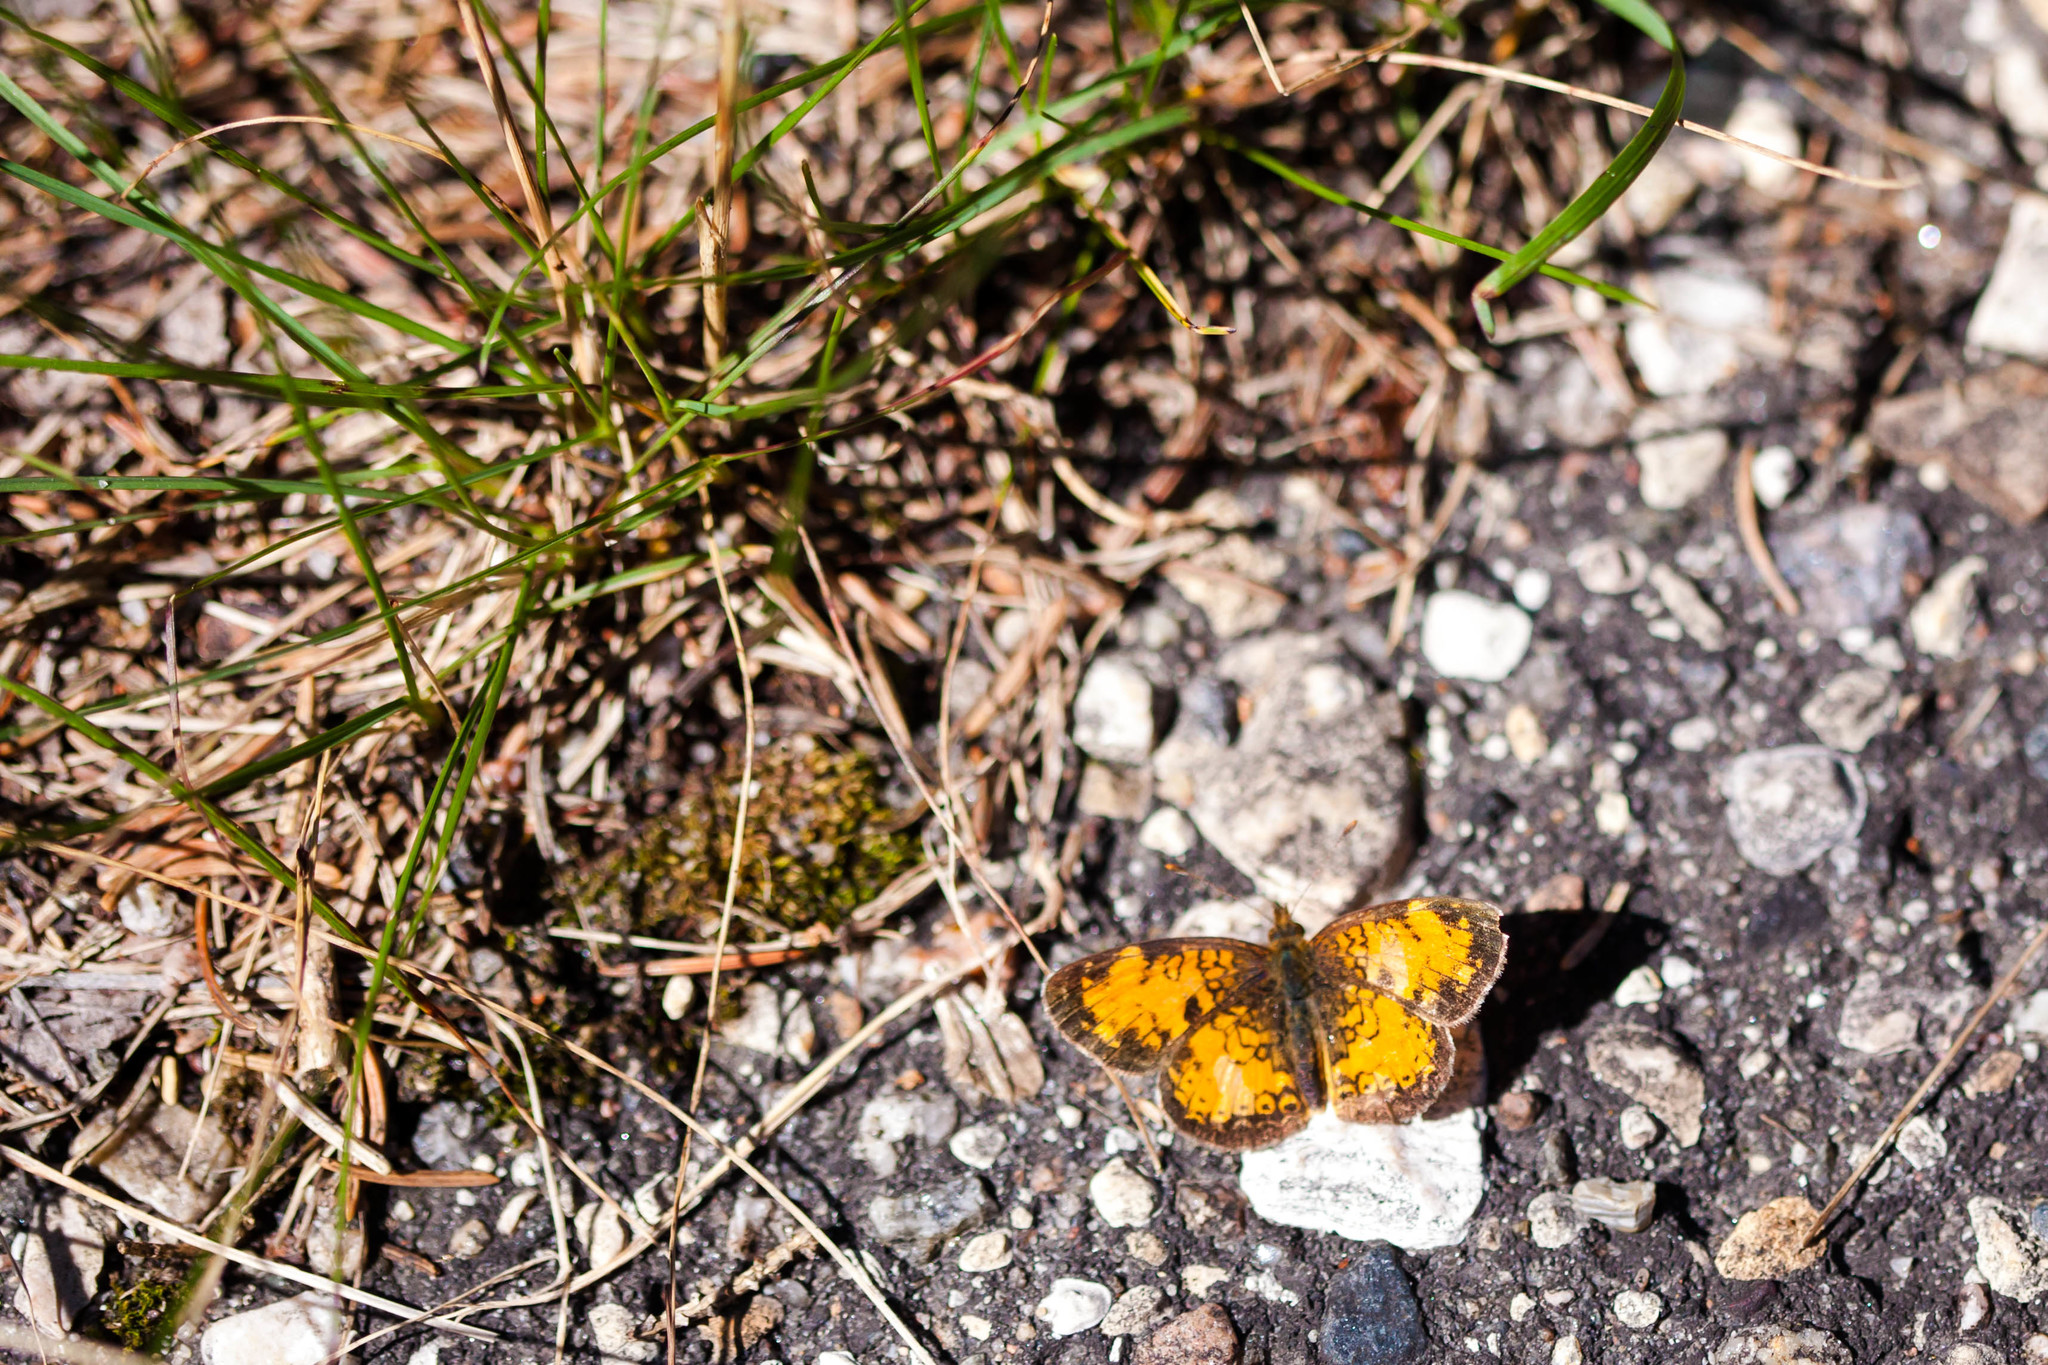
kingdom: Animalia
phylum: Arthropoda
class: Insecta
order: Lepidoptera
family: Nymphalidae
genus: Phyciodes
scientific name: Phyciodes tharos
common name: Pearl crescent
